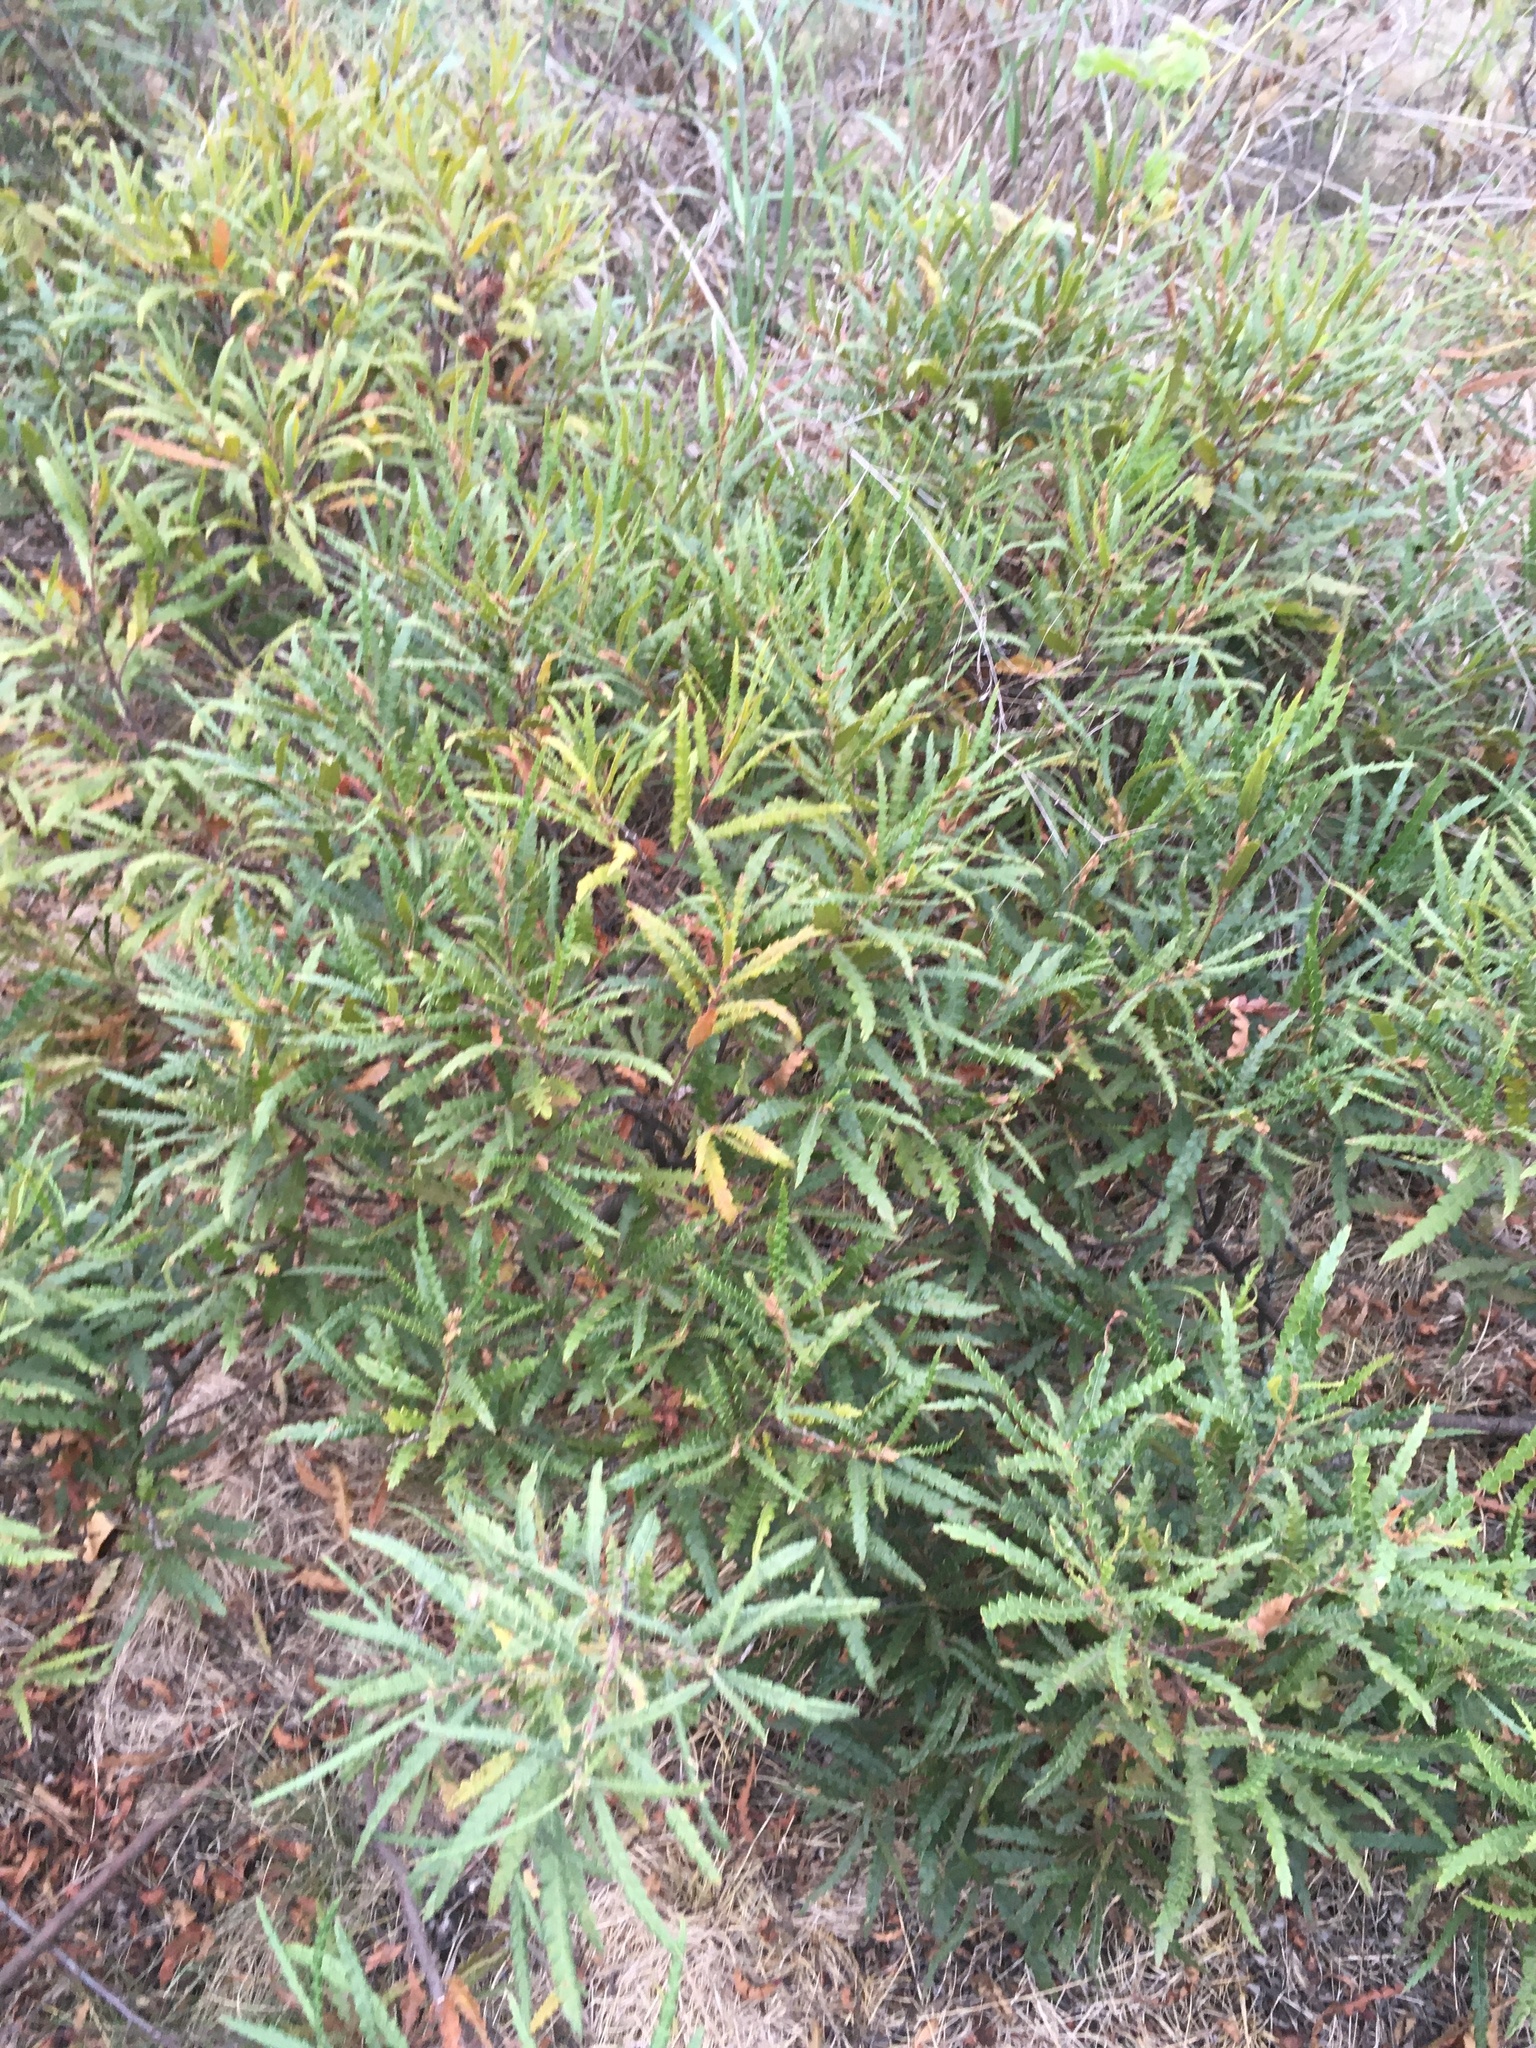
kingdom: Plantae
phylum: Tracheophyta
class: Magnoliopsida
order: Fagales
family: Myricaceae
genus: Comptonia
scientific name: Comptonia peregrina
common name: Sweet-fern
